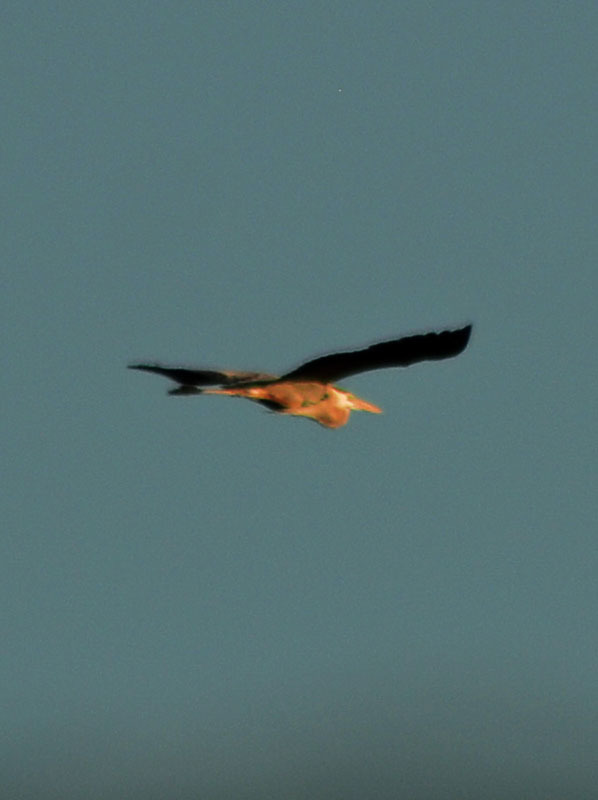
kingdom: Animalia
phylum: Chordata
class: Aves
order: Pelecaniformes
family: Ardeidae
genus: Ardea
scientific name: Ardea herodias
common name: Great blue heron
